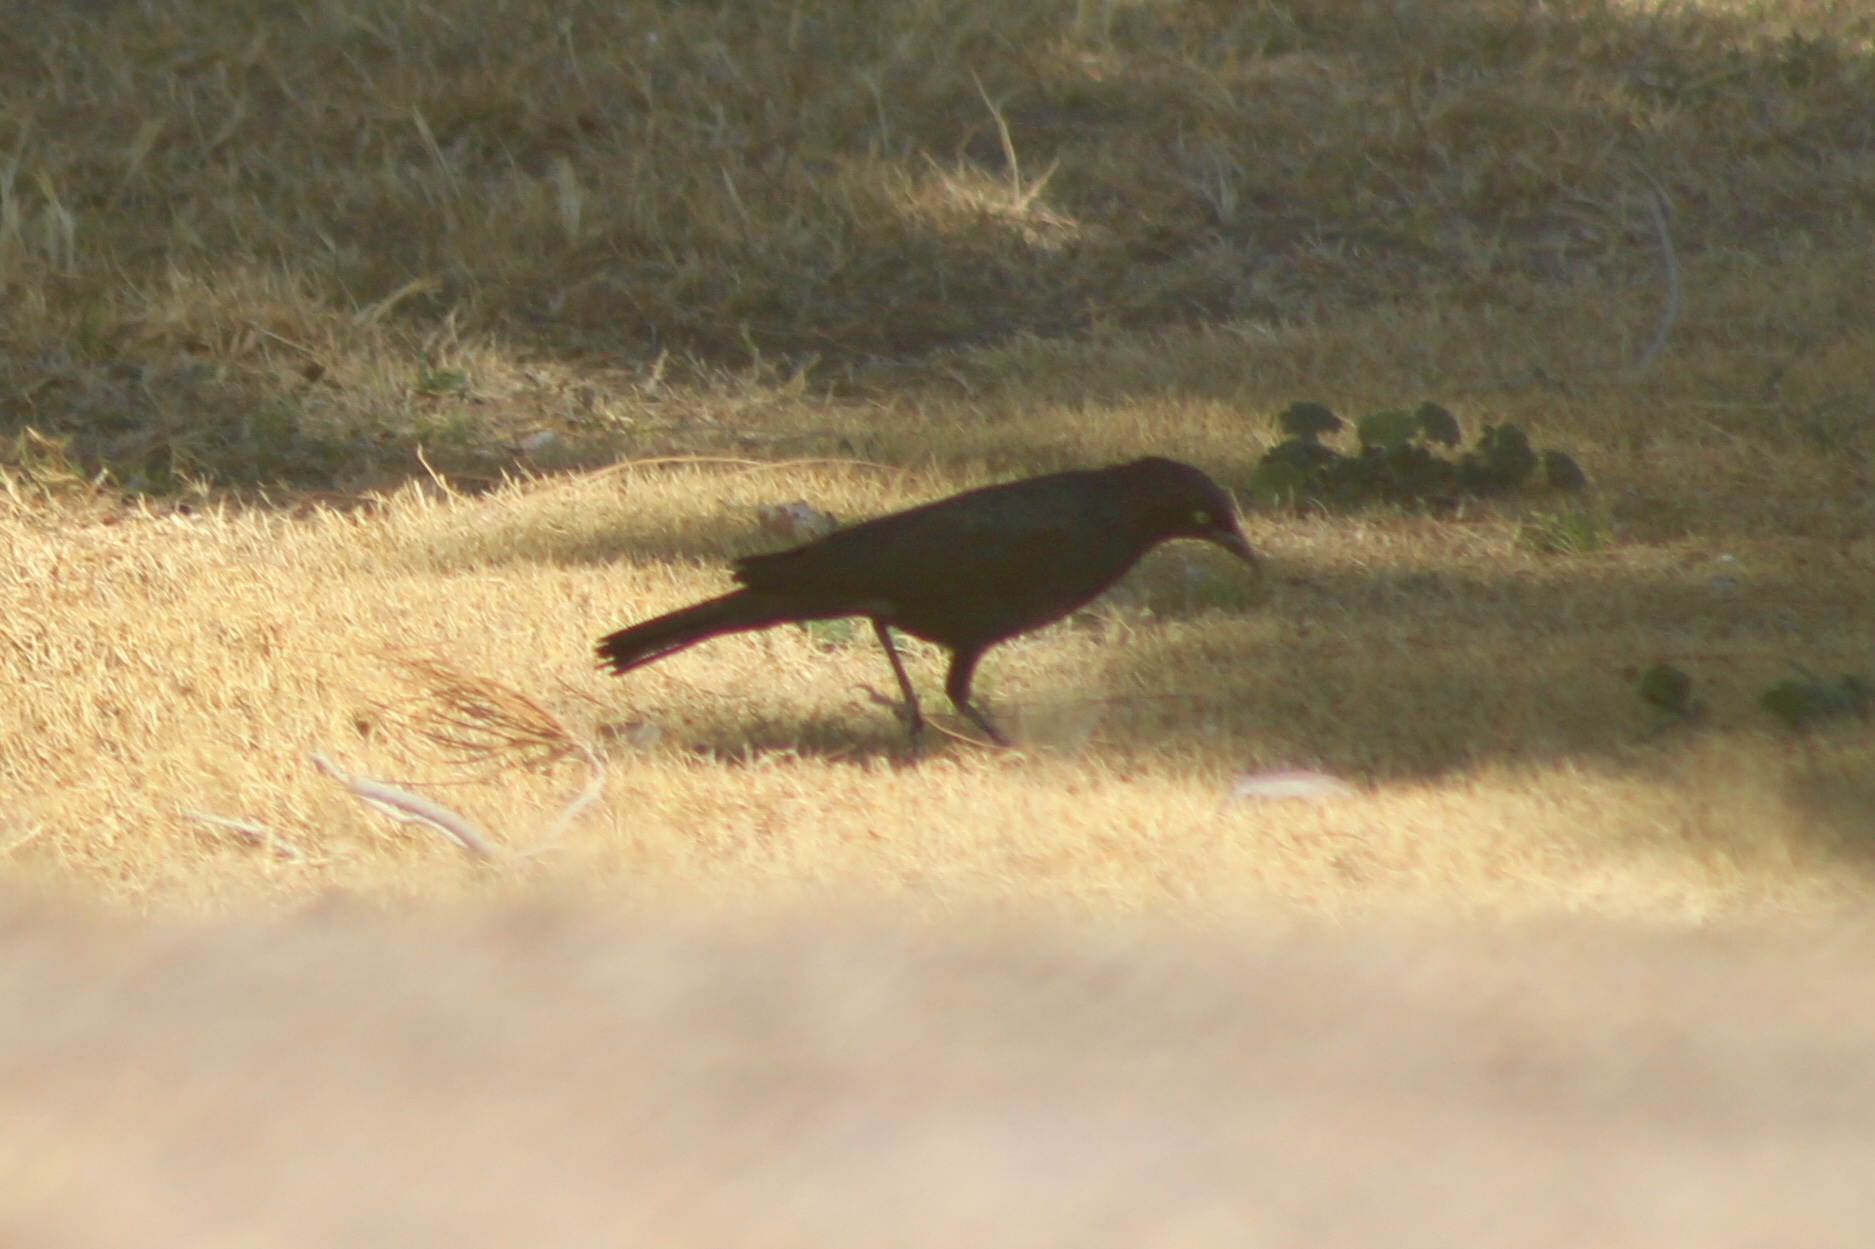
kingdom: Animalia
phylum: Chordata
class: Aves
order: Passeriformes
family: Icteridae
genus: Euphagus
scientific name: Euphagus cyanocephalus
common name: Brewer's blackbird
